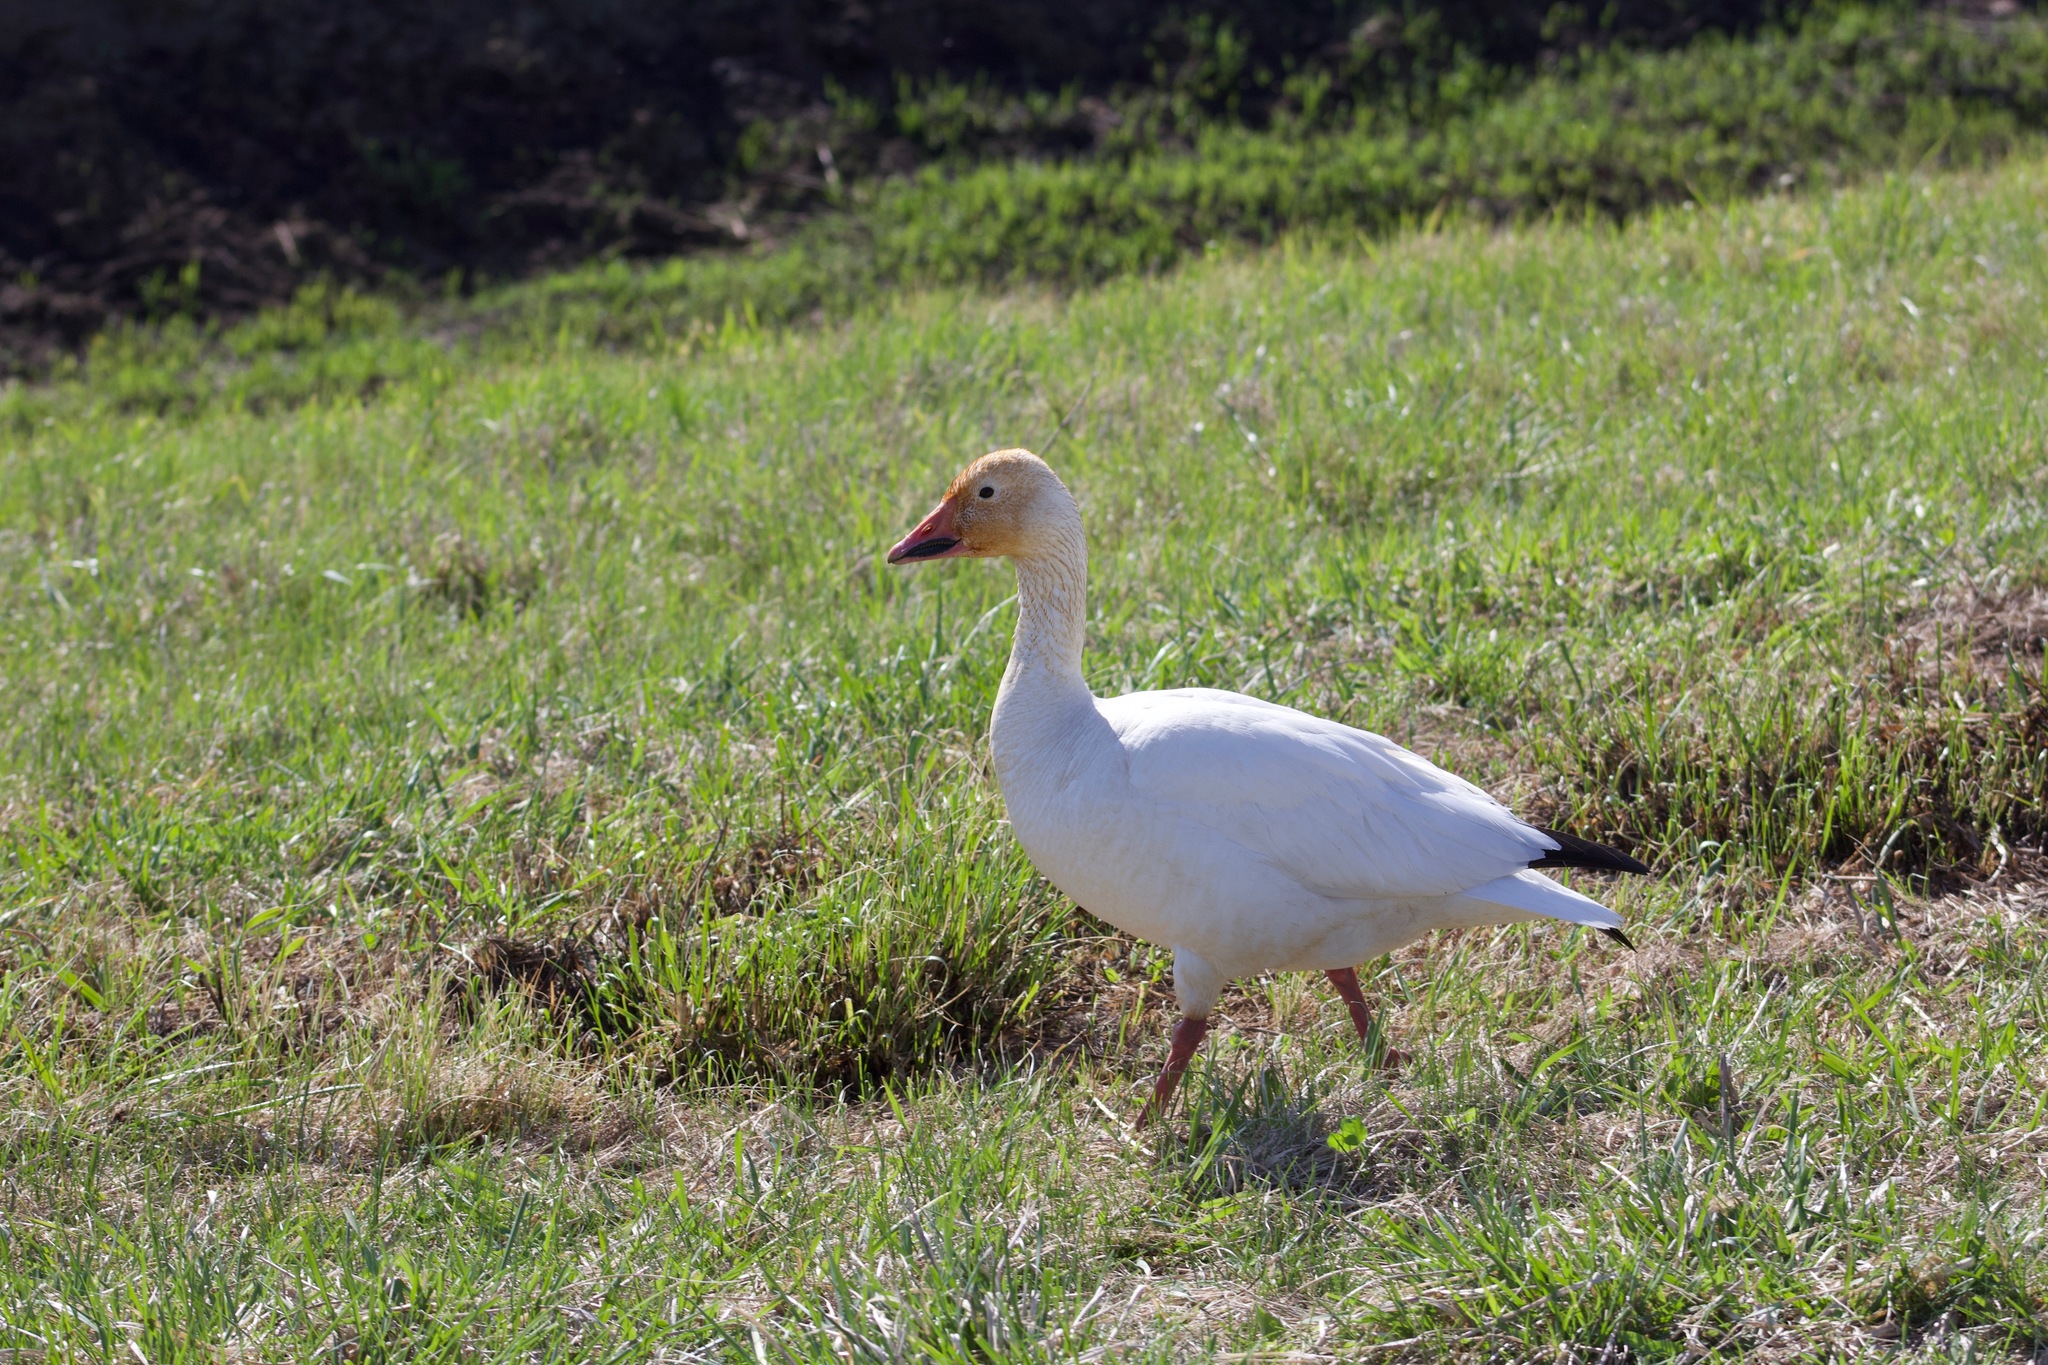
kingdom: Animalia
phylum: Chordata
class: Aves
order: Anseriformes
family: Anatidae
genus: Anser
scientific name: Anser caerulescens
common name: Snow goose
